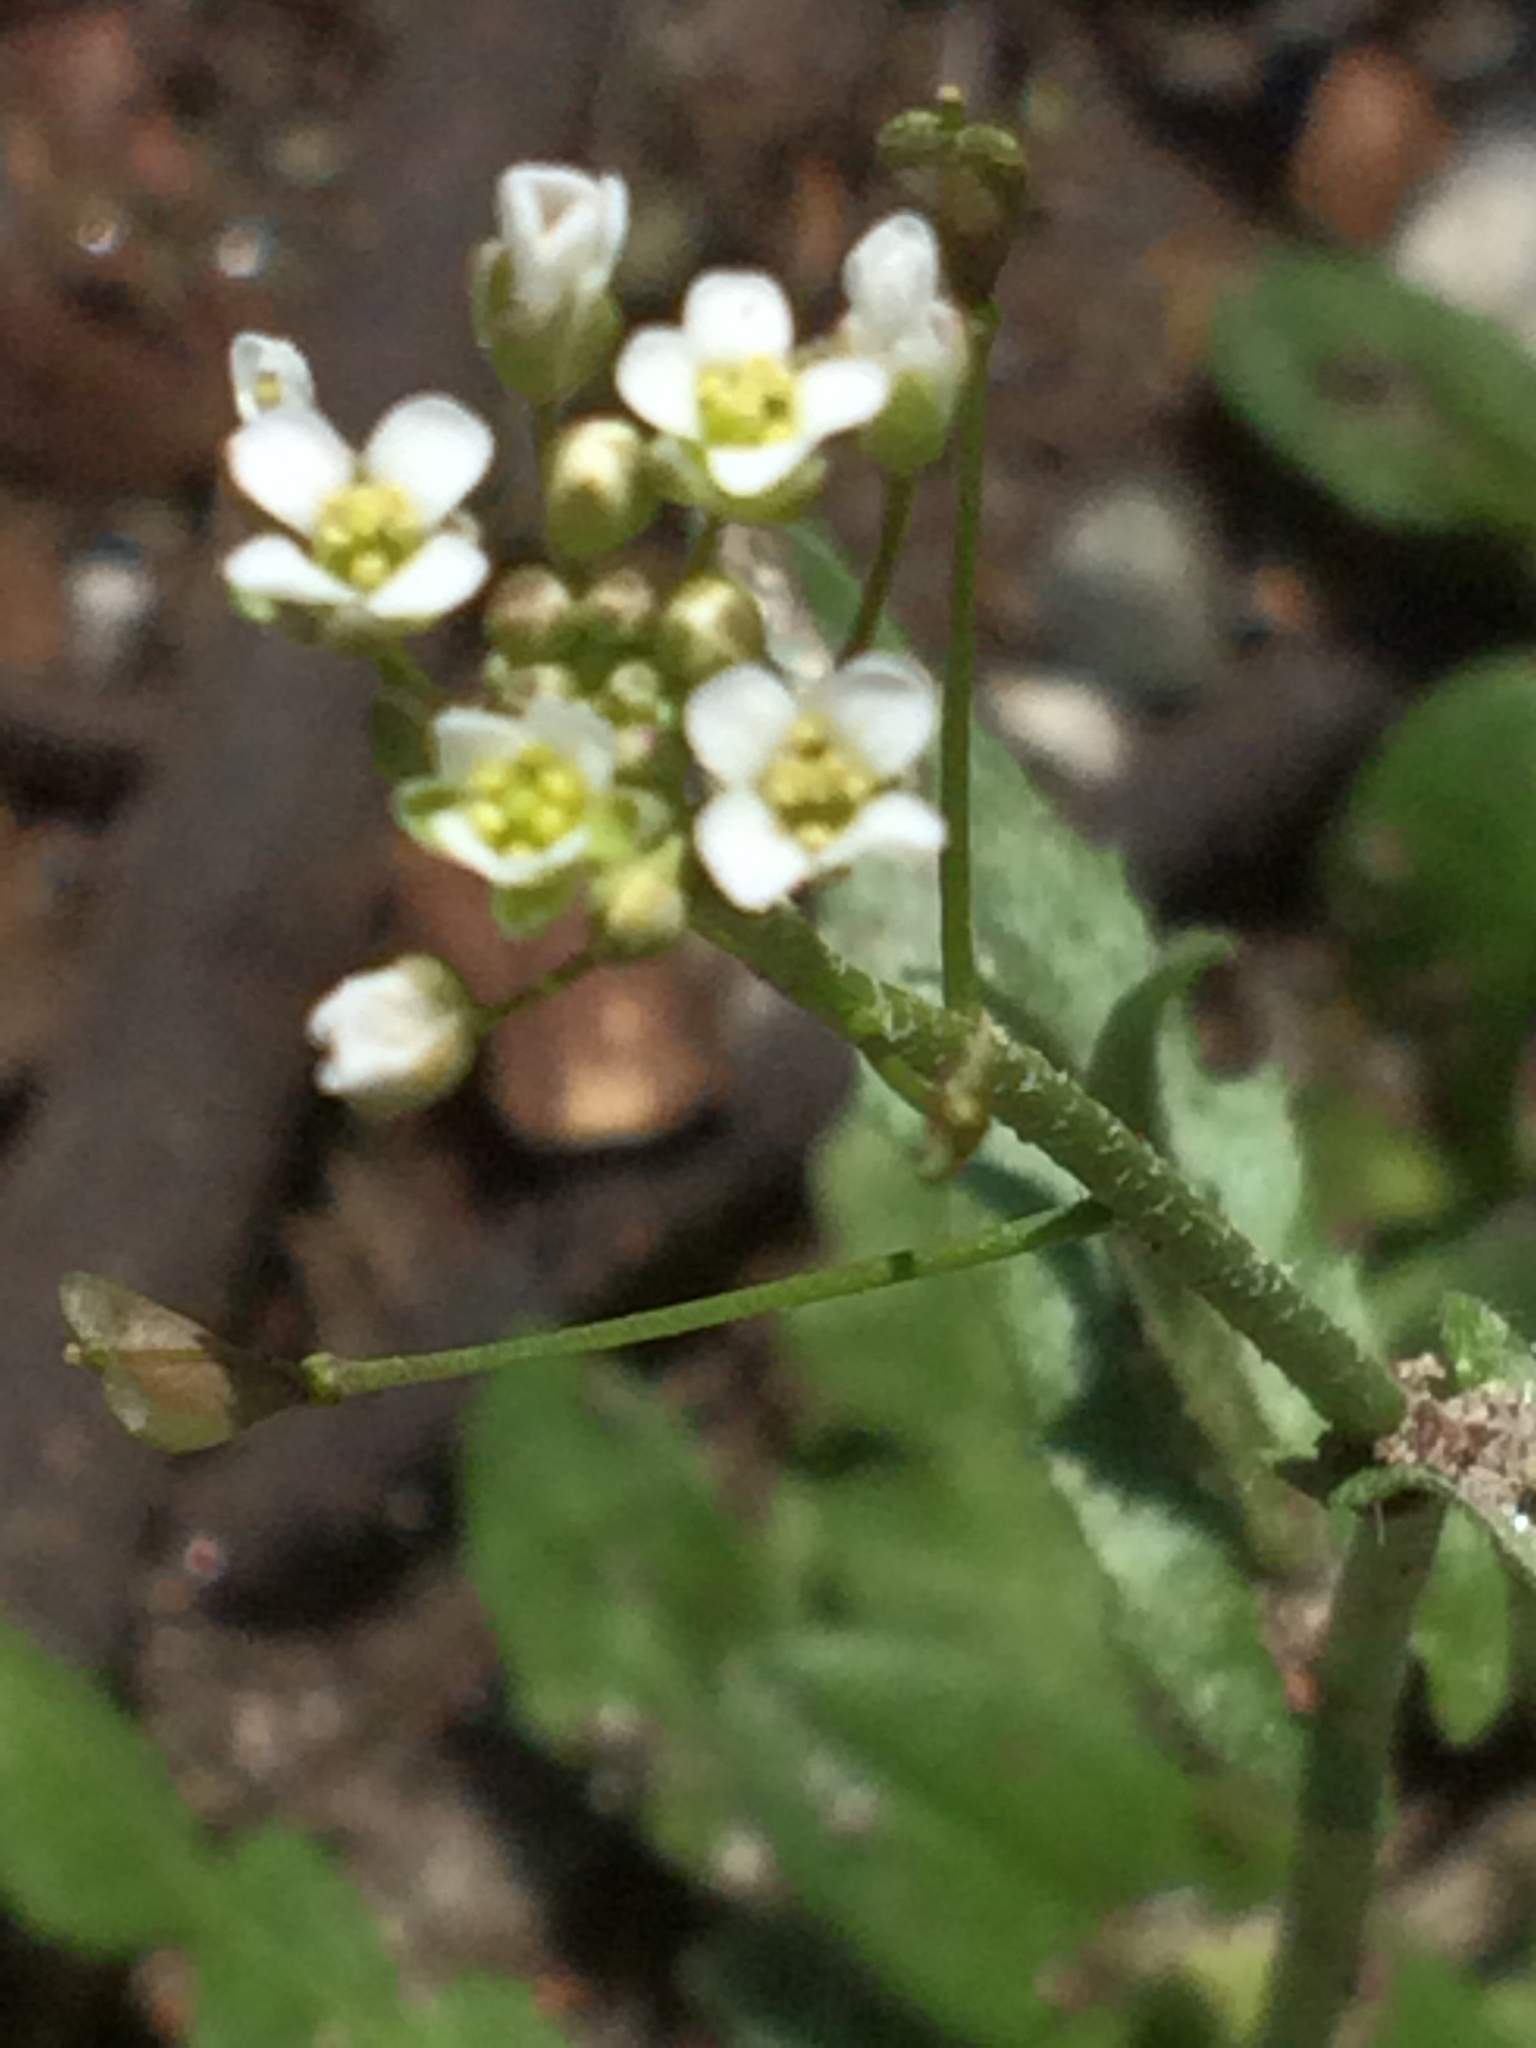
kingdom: Plantae
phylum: Tracheophyta
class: Magnoliopsida
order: Brassicales
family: Brassicaceae
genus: Capsella
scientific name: Capsella bursa-pastoris
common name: Shepherd's purse
